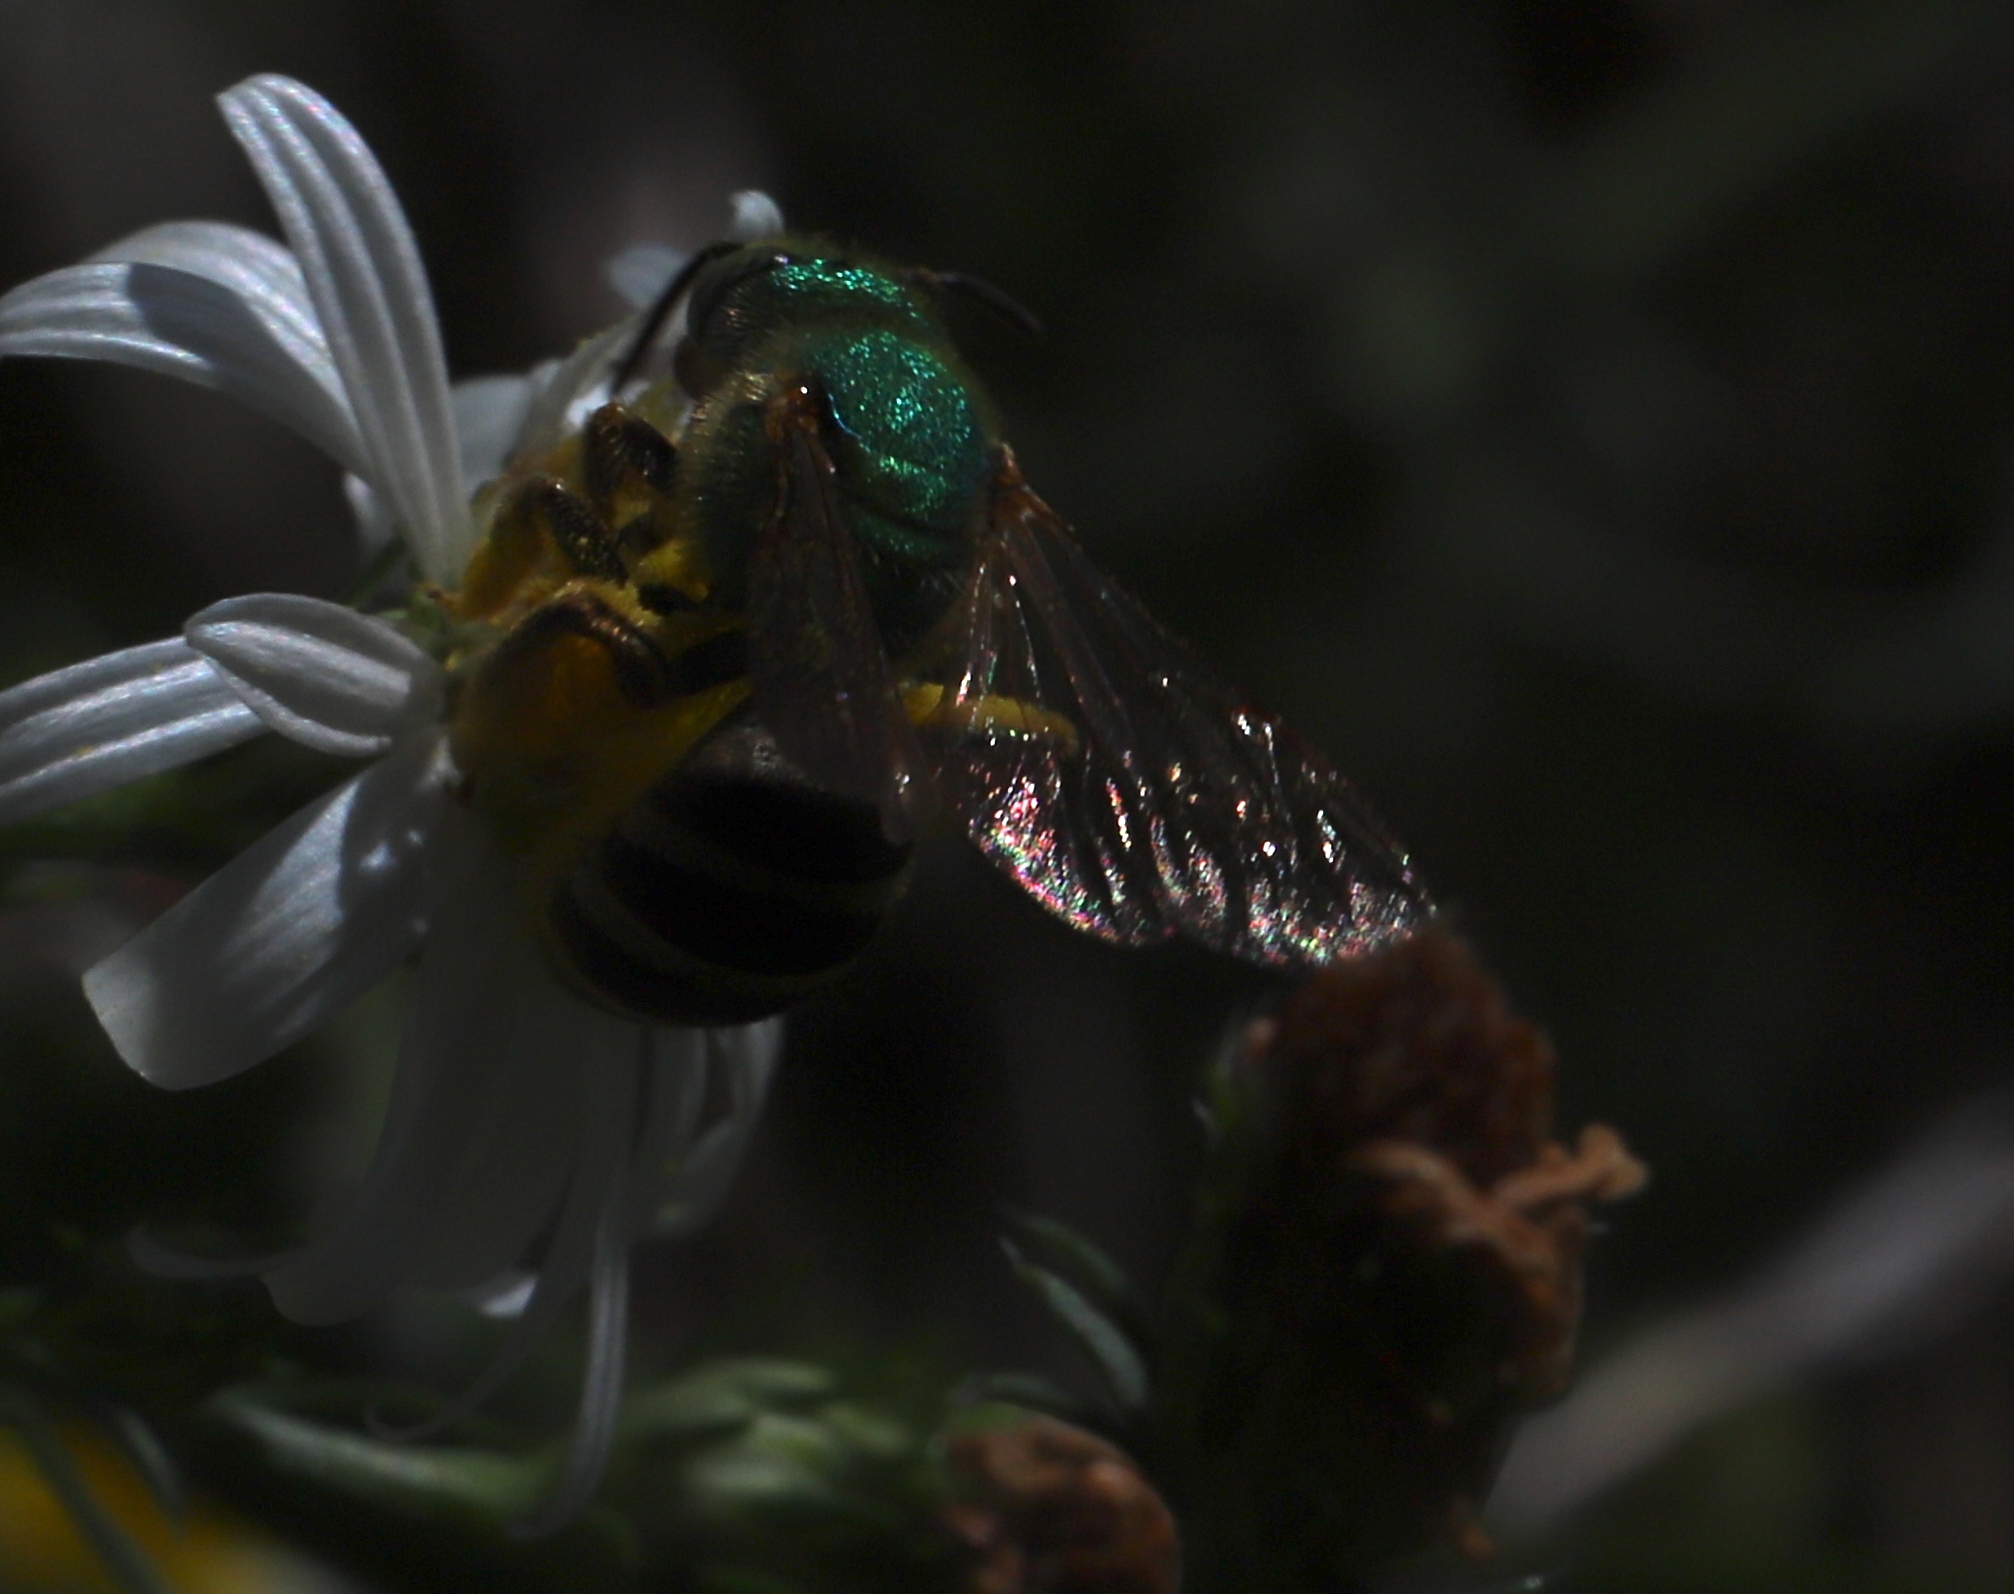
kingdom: Animalia
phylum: Arthropoda
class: Insecta
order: Hymenoptera
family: Halictidae
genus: Agapostemon
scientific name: Agapostemon virescens
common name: Bicolored striped sweat bee
